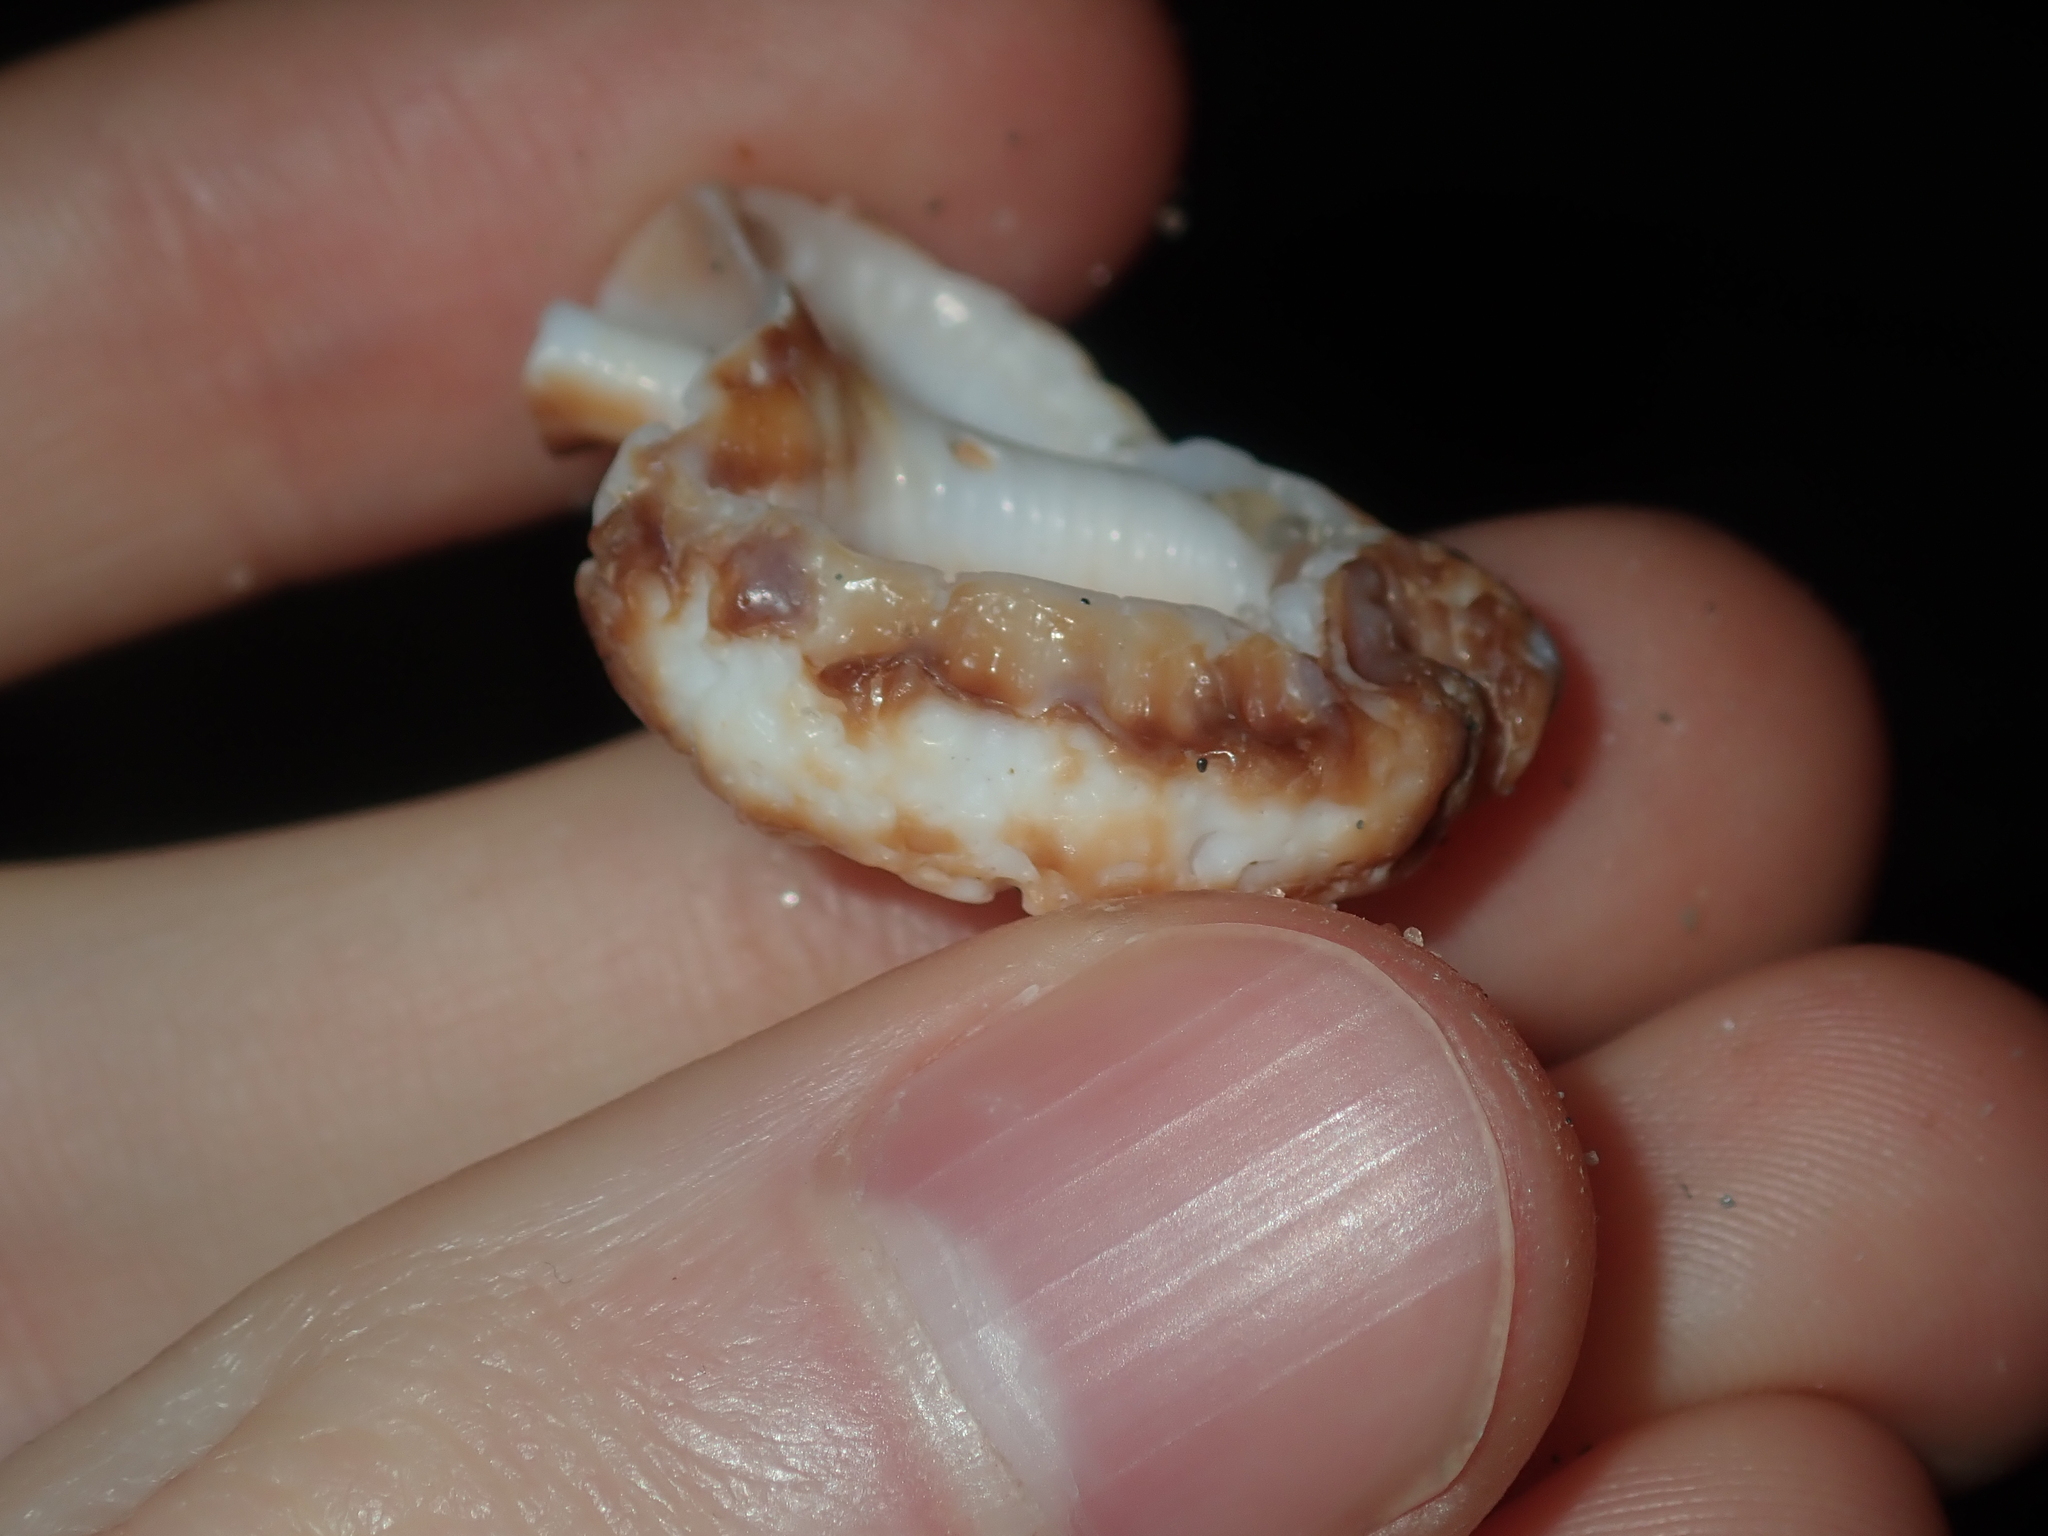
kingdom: Animalia
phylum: Mollusca
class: Gastropoda
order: Littorinimorpha
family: Bursidae
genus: Dulcerana
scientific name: Dulcerana granularis
